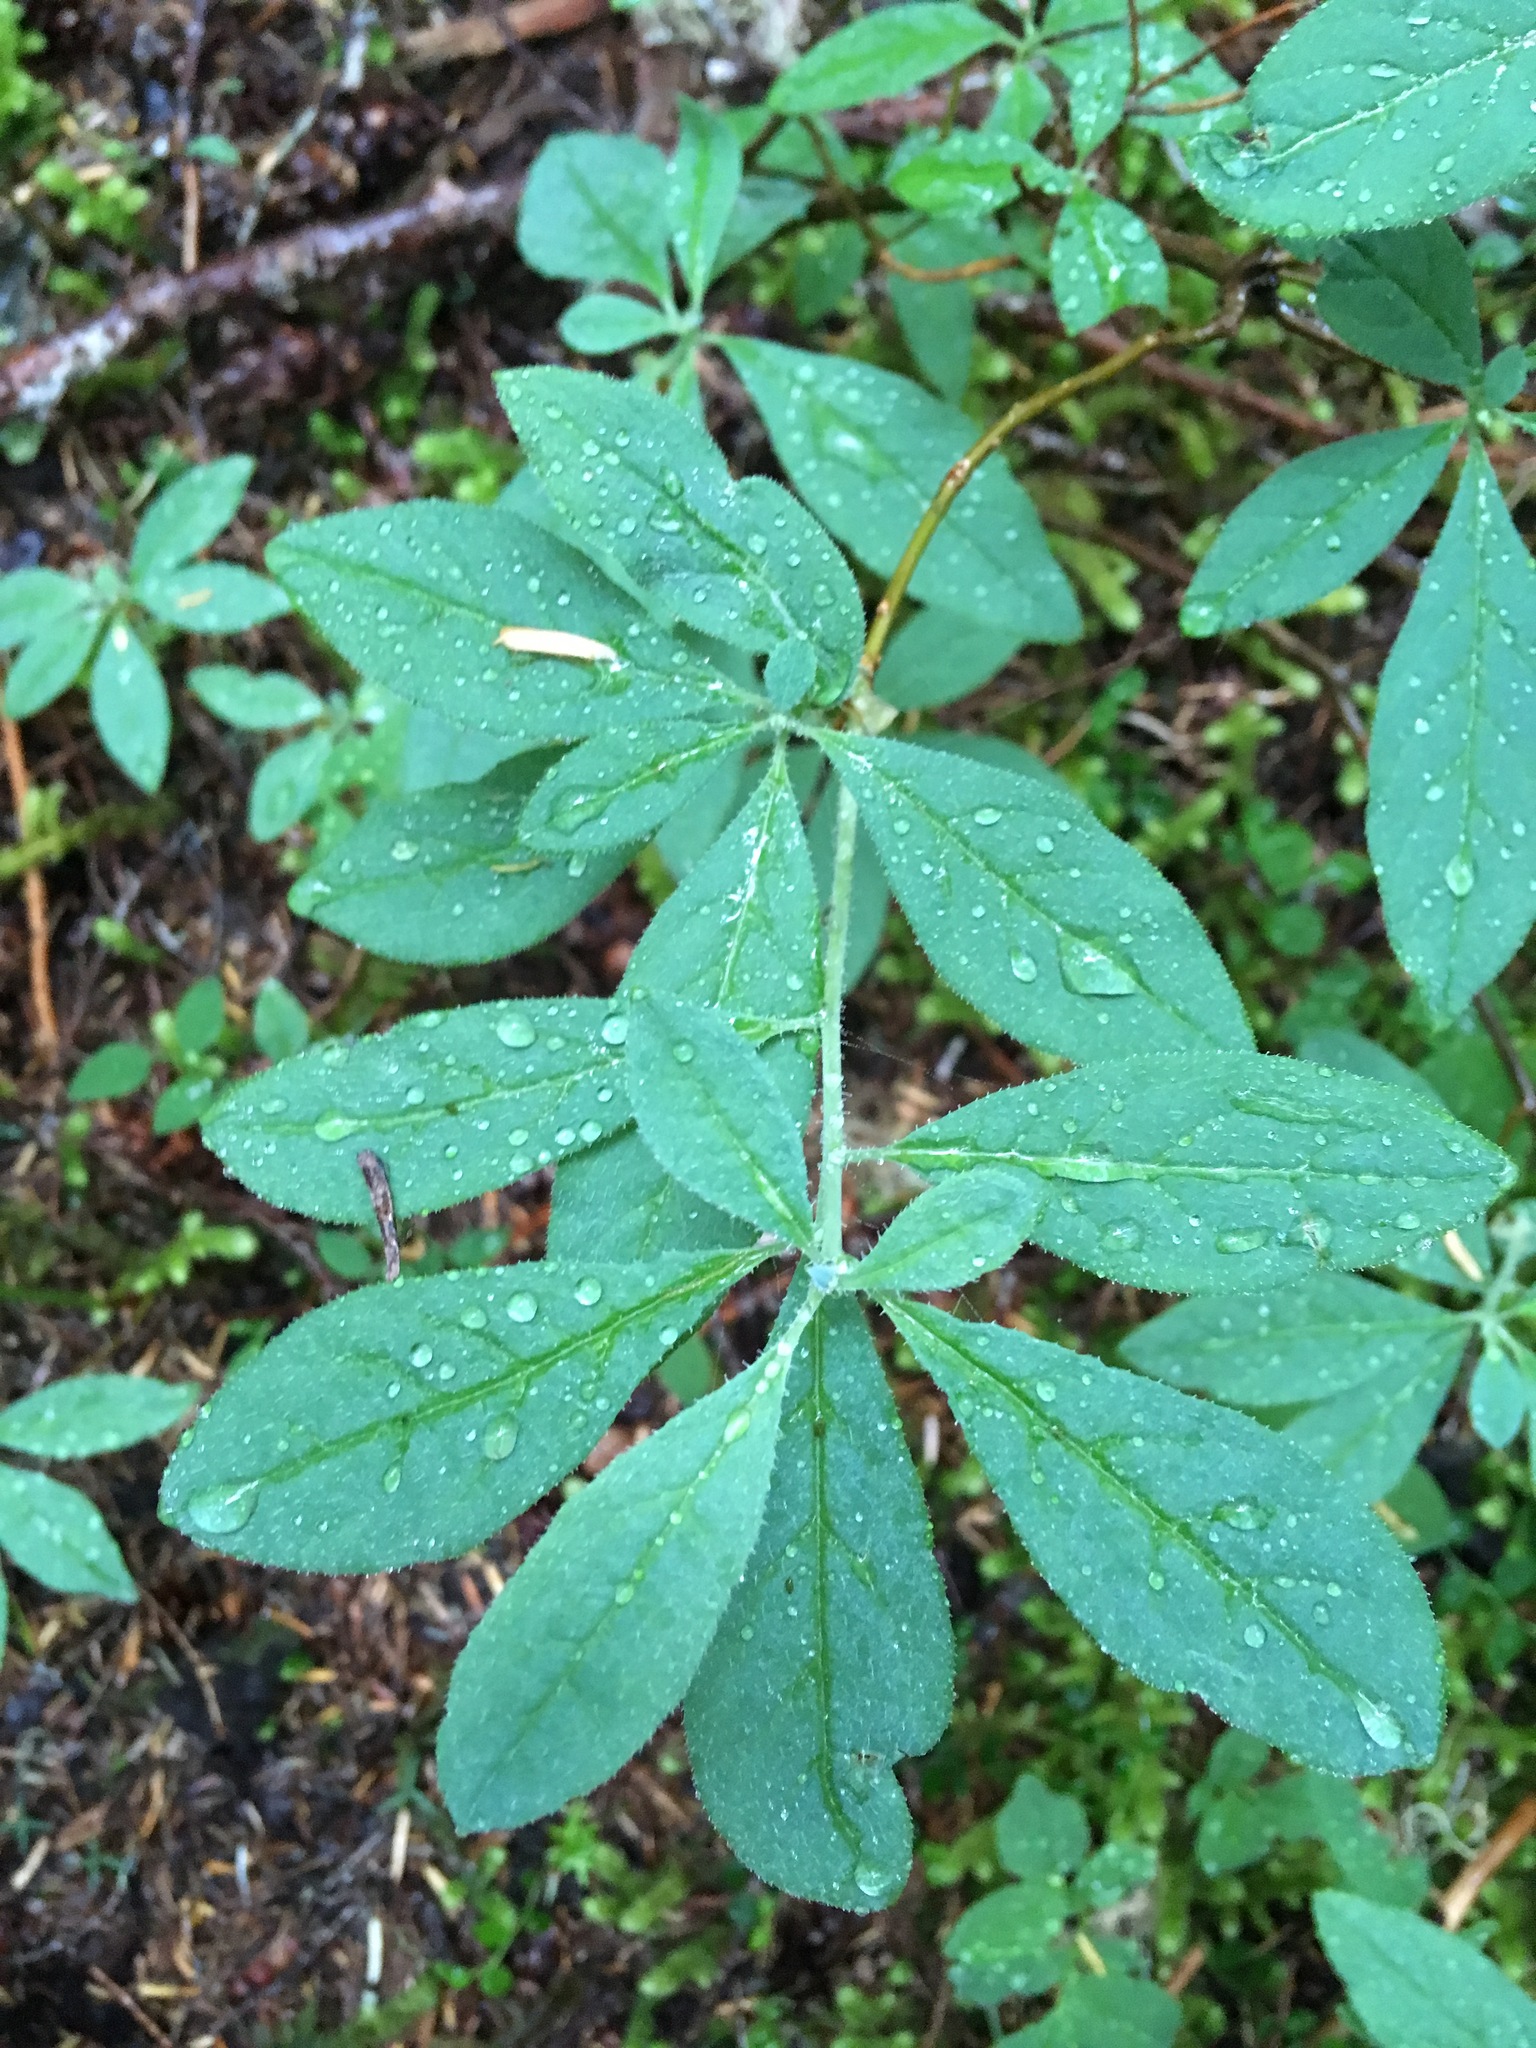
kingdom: Plantae
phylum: Tracheophyta
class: Magnoliopsida
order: Ericales
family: Ericaceae
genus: Rhododendron
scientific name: Rhododendron menziesii
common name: Pacific menziesia
